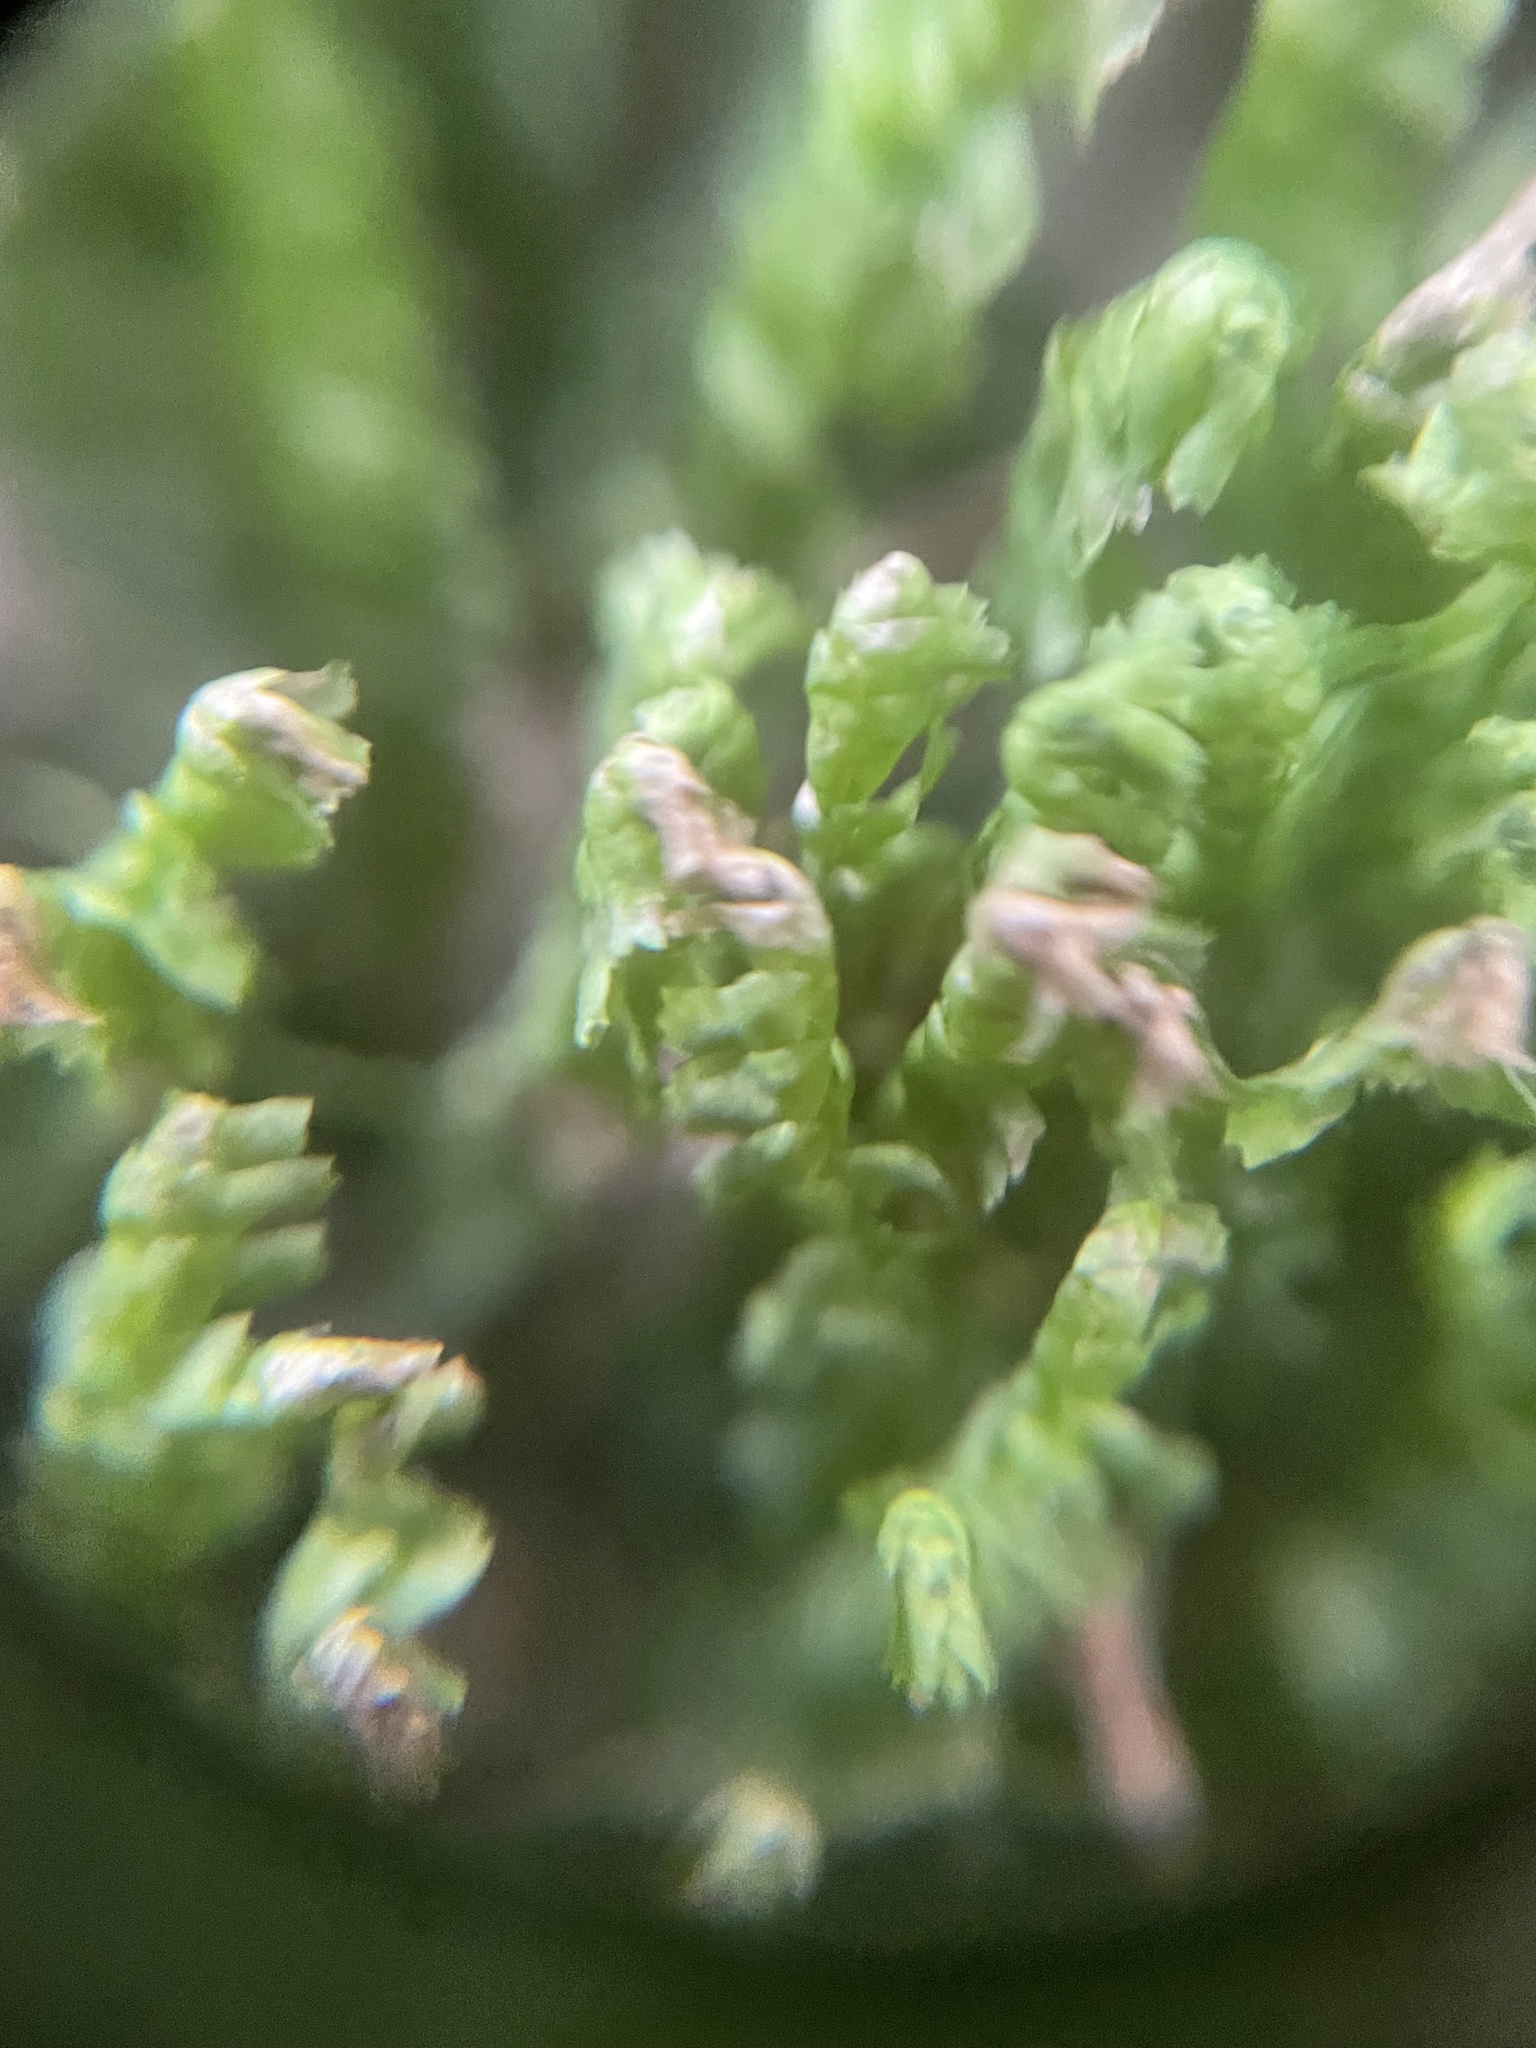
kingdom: Plantae
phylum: Marchantiophyta
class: Jungermanniopsida
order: Jungermanniales
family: Lepidoziaceae
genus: Bazzania
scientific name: Bazzania trilobata
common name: Three-lobed whipwort
